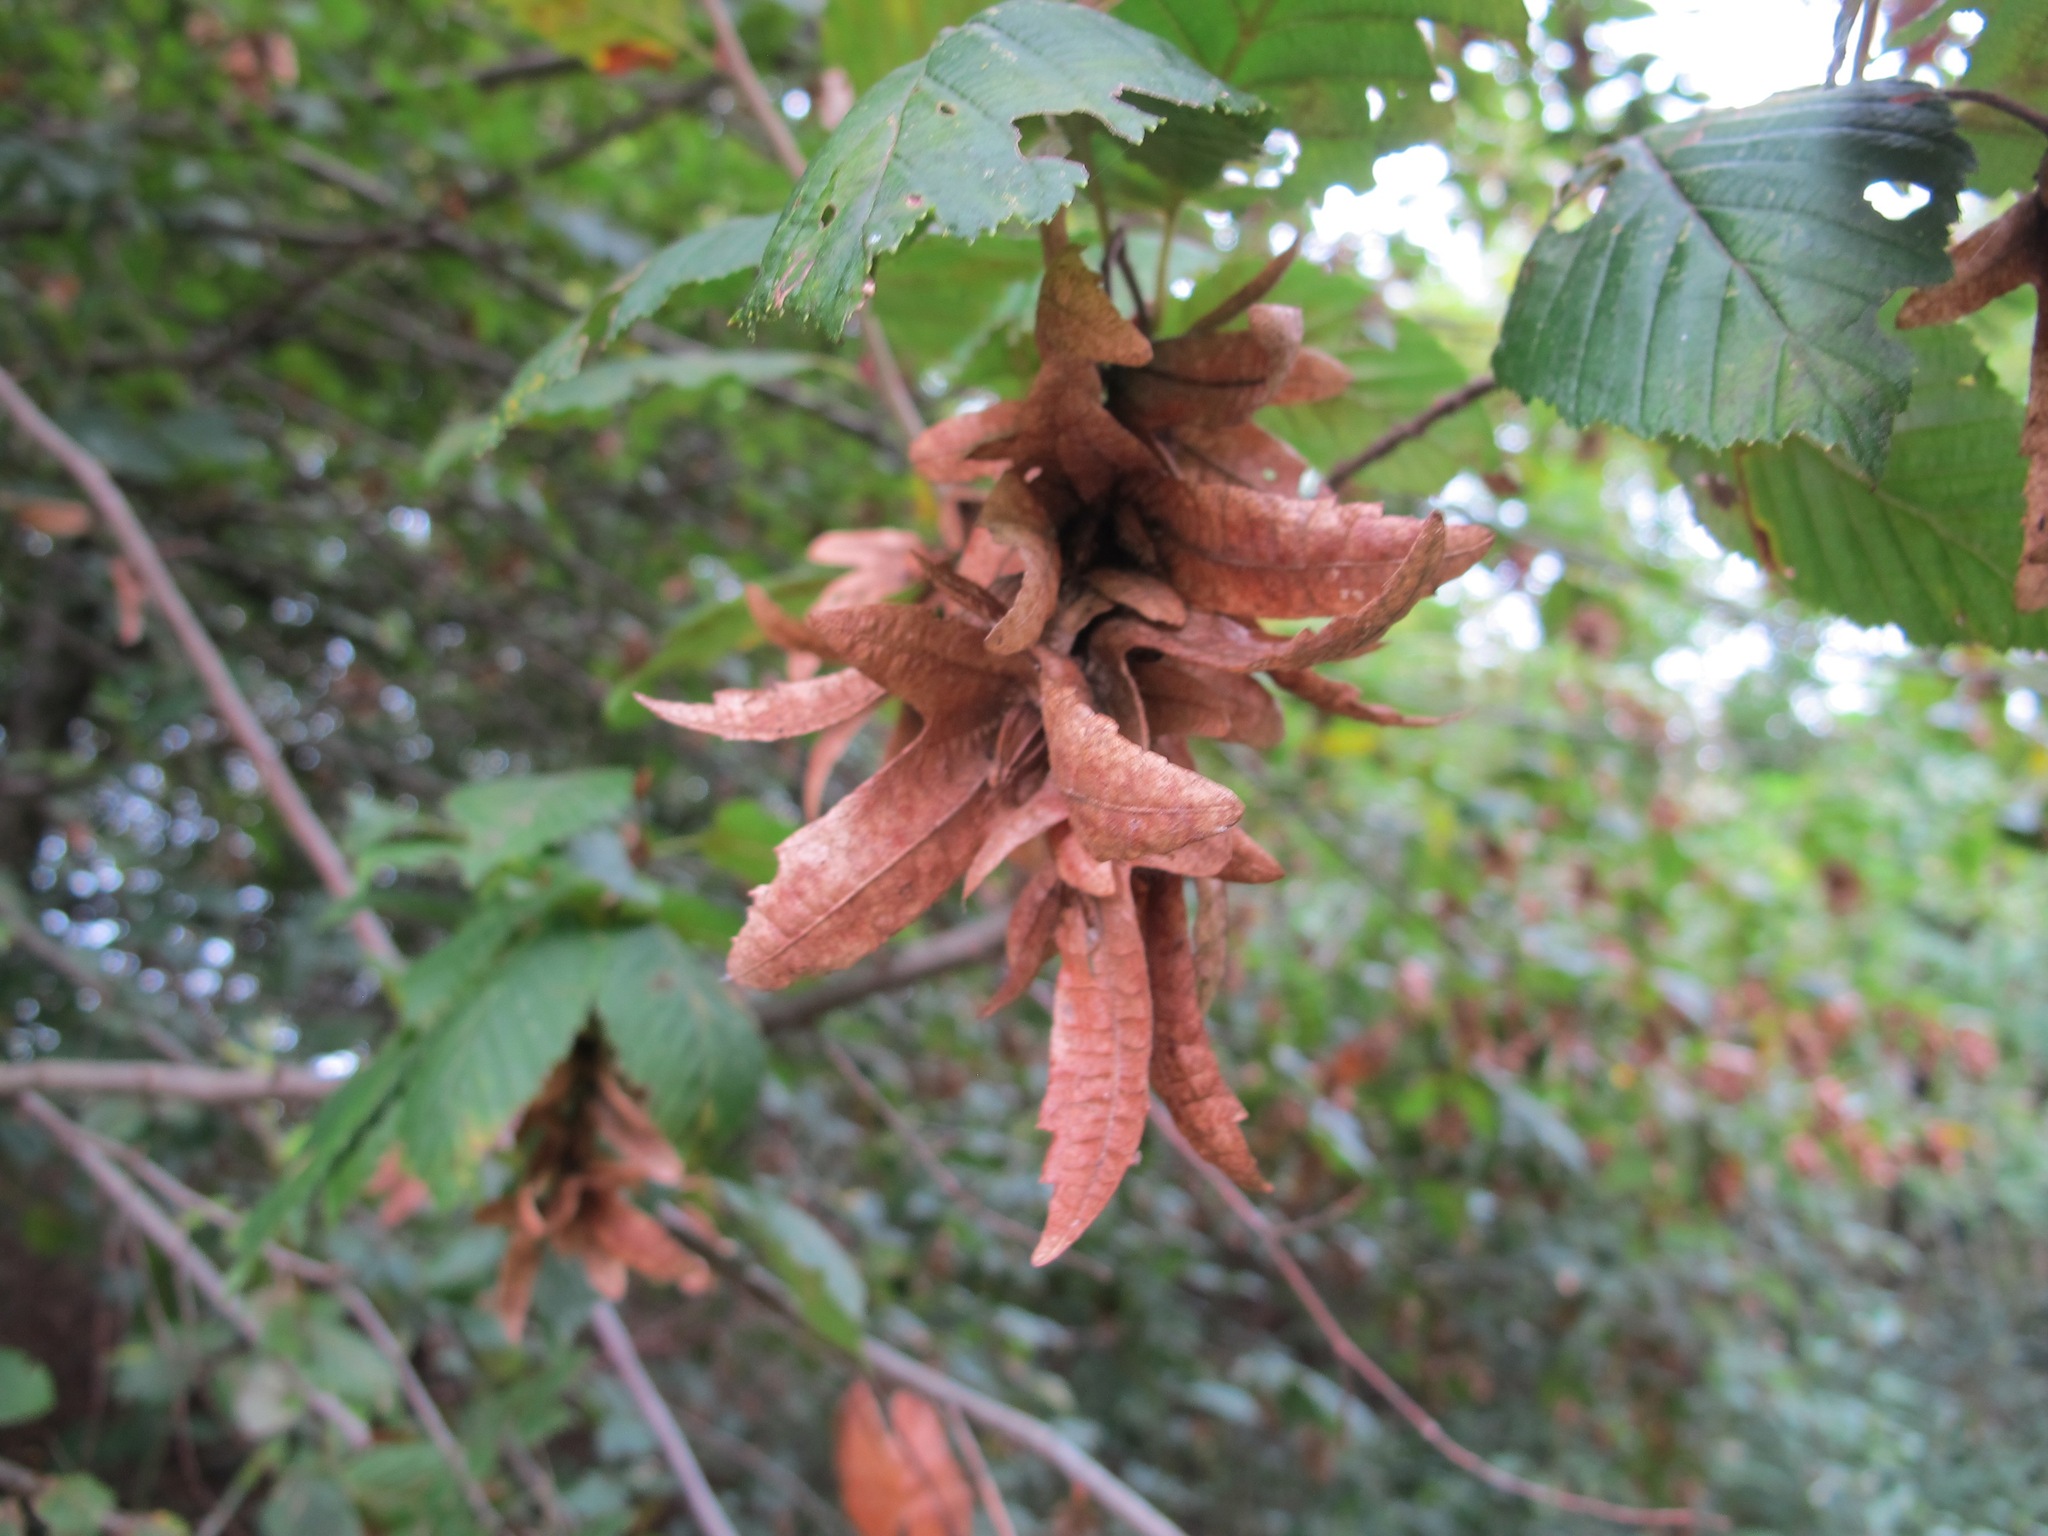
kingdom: Plantae
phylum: Tracheophyta
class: Magnoliopsida
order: Fagales
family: Betulaceae
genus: Carpinus
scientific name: Carpinus betulus
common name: Hornbeam
